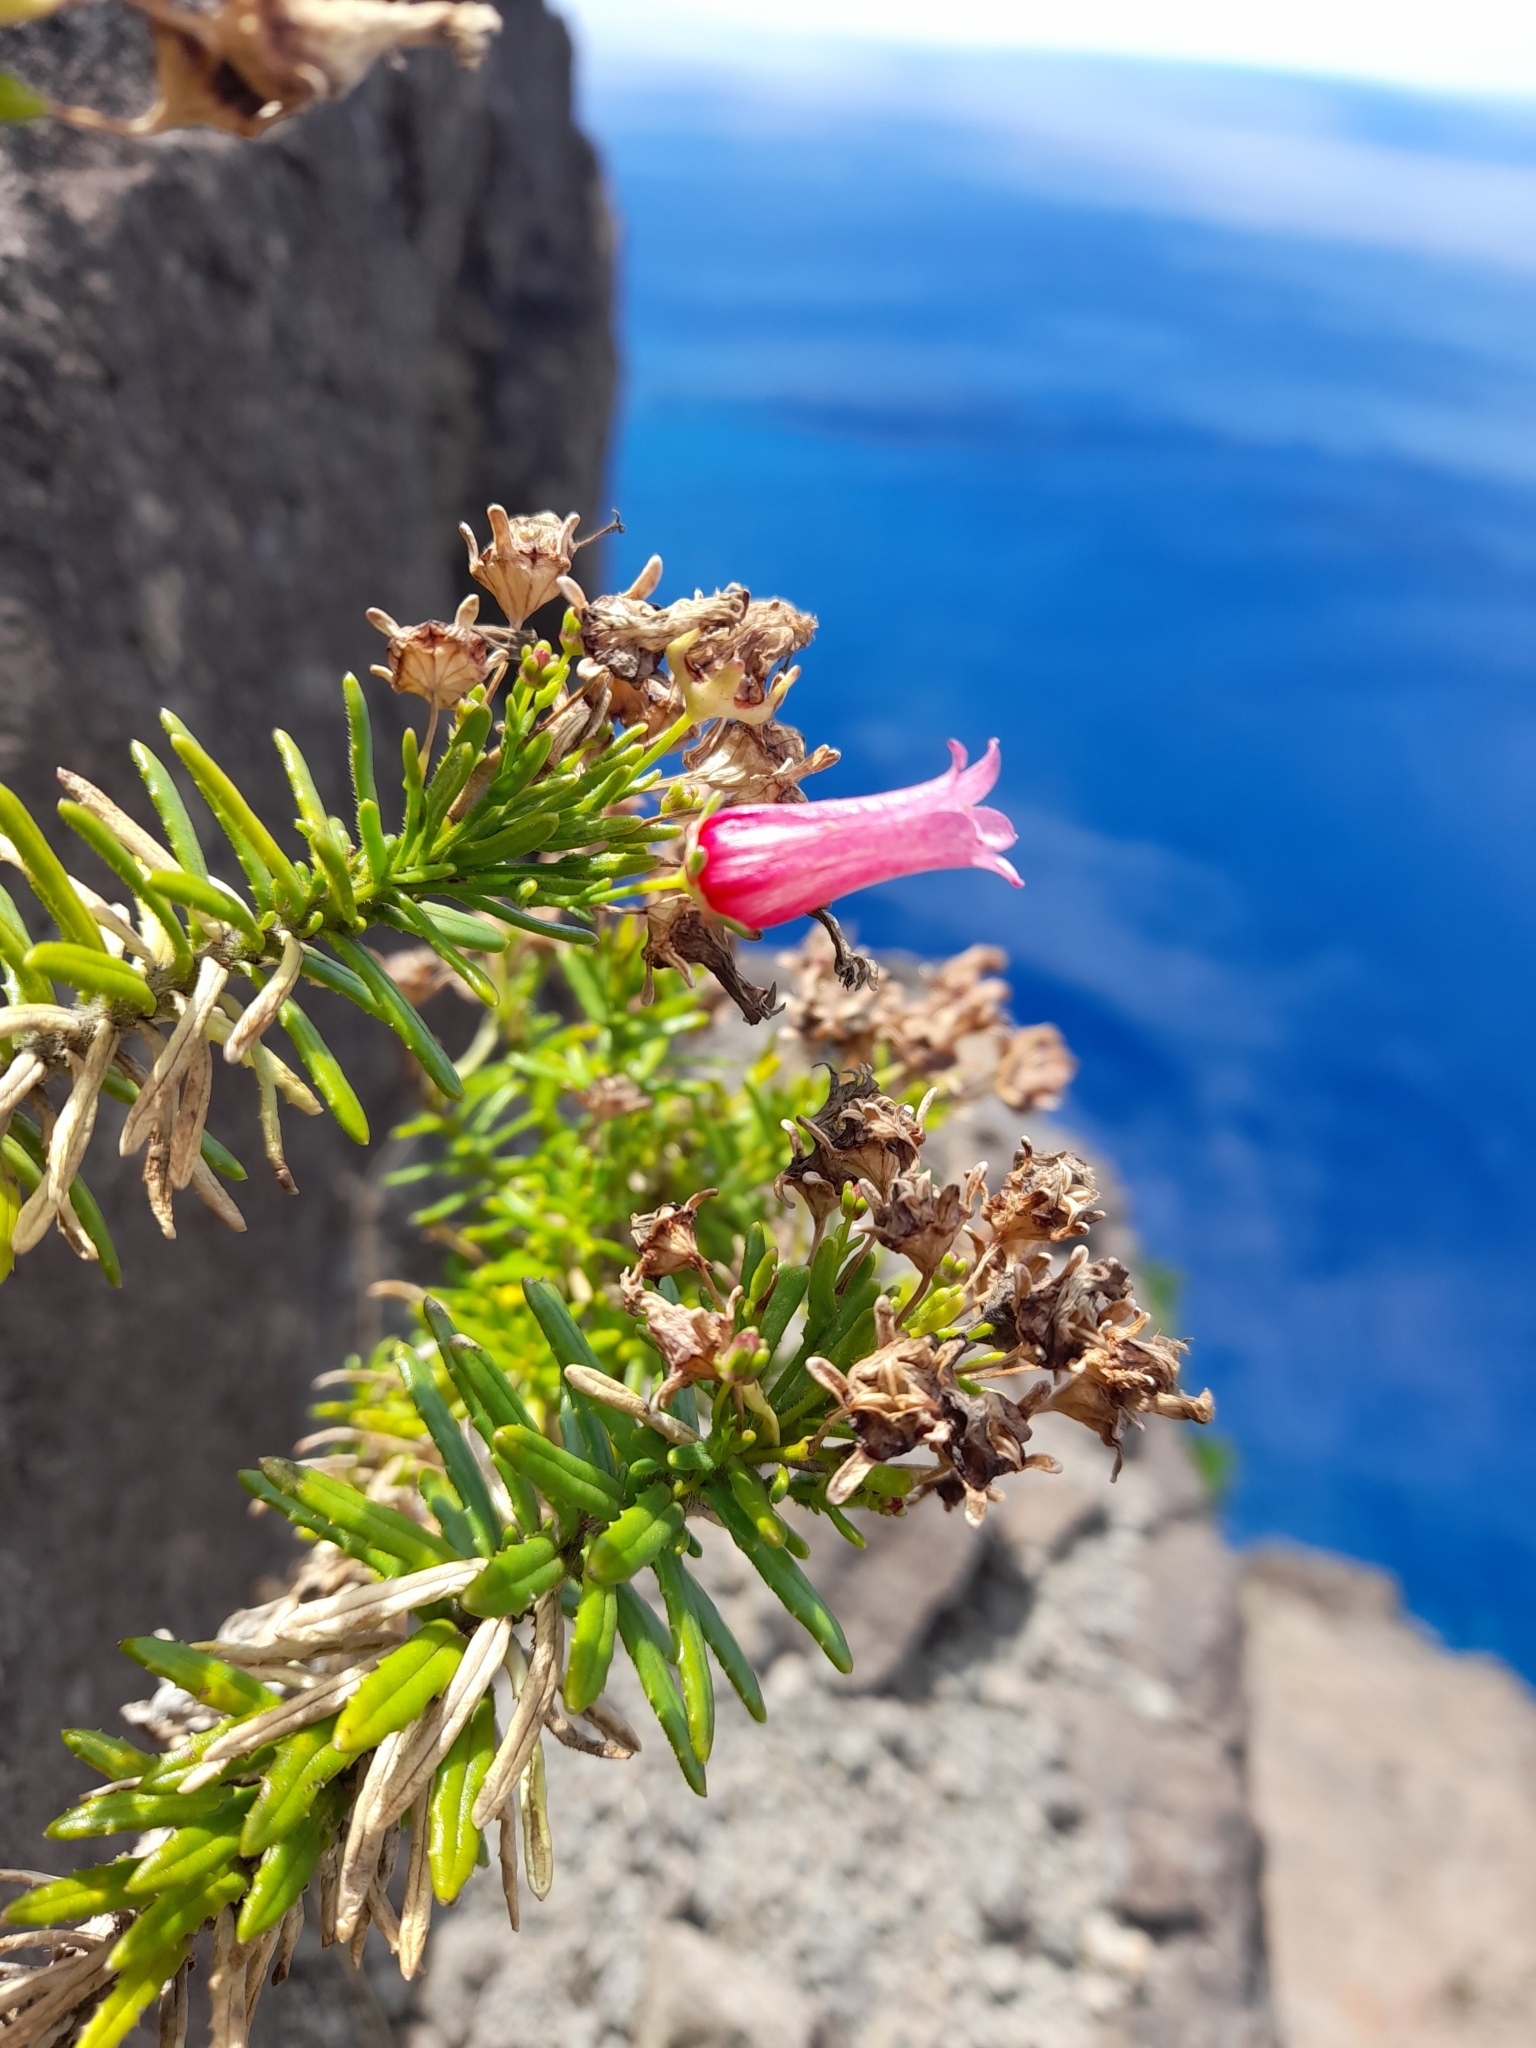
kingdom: Plantae
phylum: Tracheophyta
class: Magnoliopsida
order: Asterales
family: Campanulaceae
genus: Wahlenbergia
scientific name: Wahlenbergia berteroi
